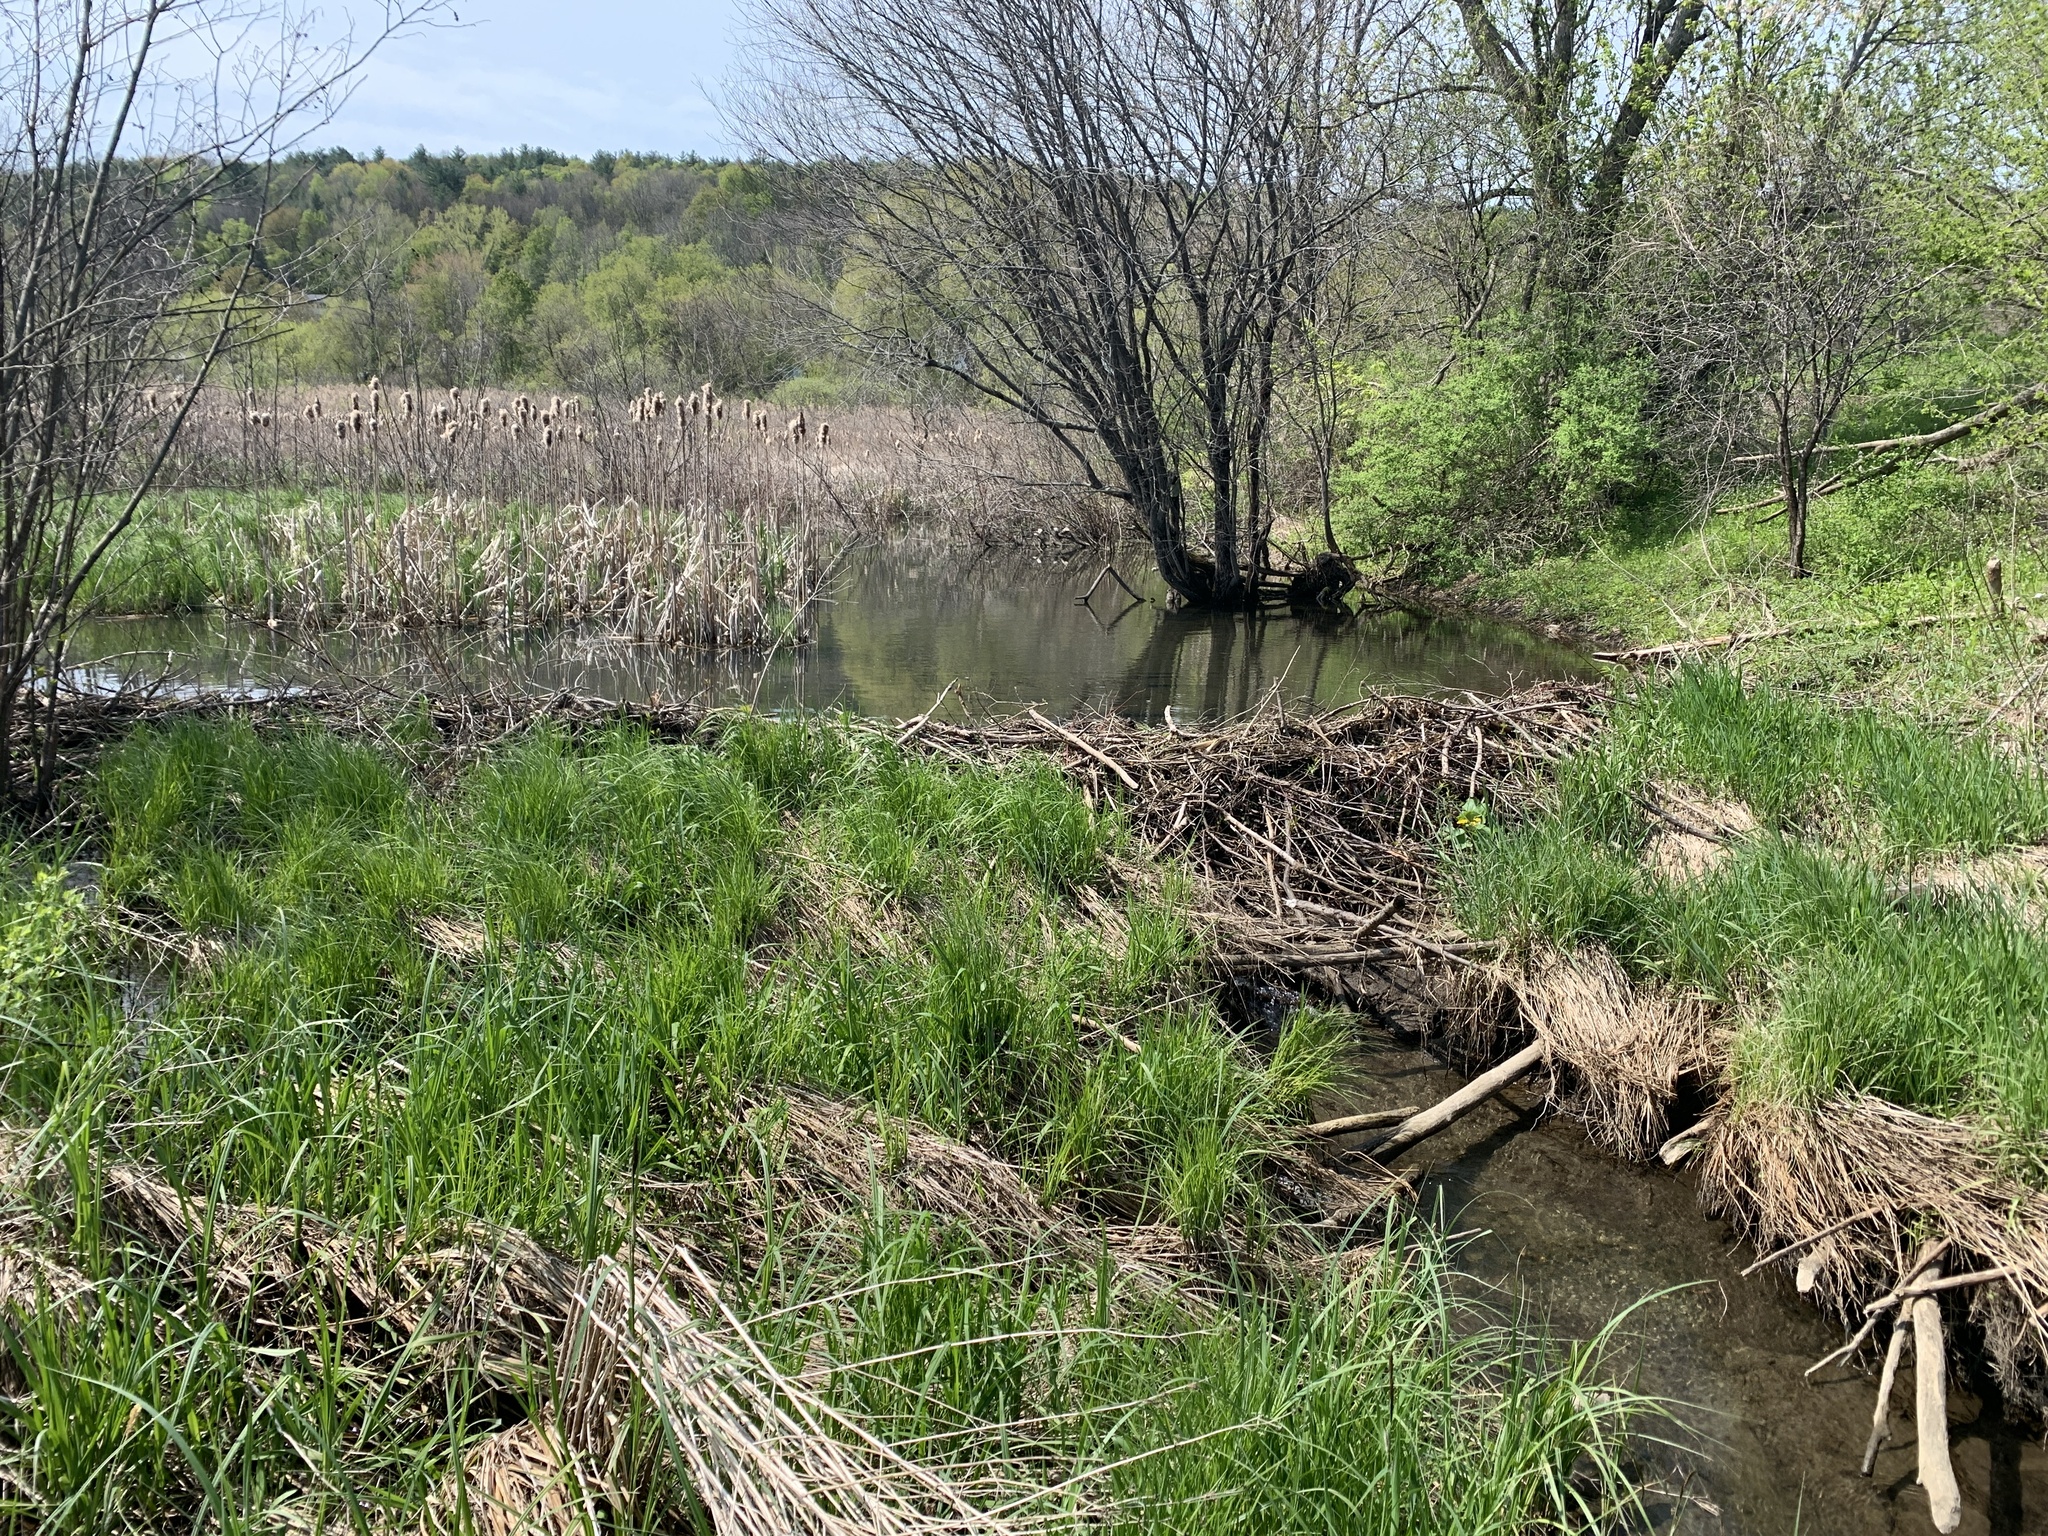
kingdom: Animalia
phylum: Chordata
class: Mammalia
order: Rodentia
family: Castoridae
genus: Castor
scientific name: Castor canadensis
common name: American beaver
